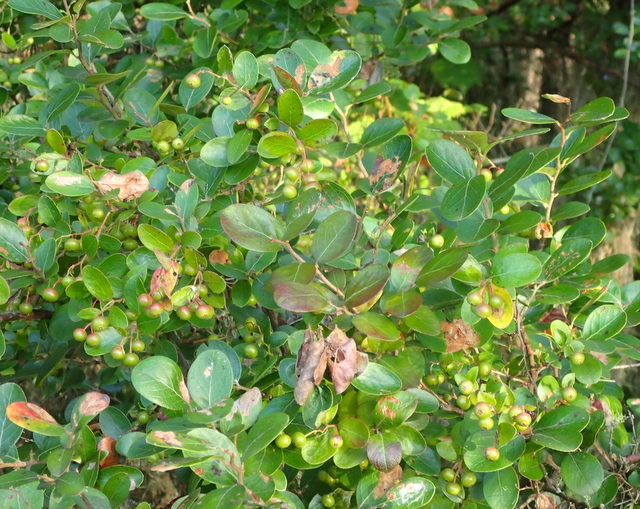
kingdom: Plantae
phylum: Tracheophyta
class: Magnoliopsida
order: Ericales
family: Ericaceae
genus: Vaccinium
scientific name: Vaccinium arboreum
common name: Farkleberry
